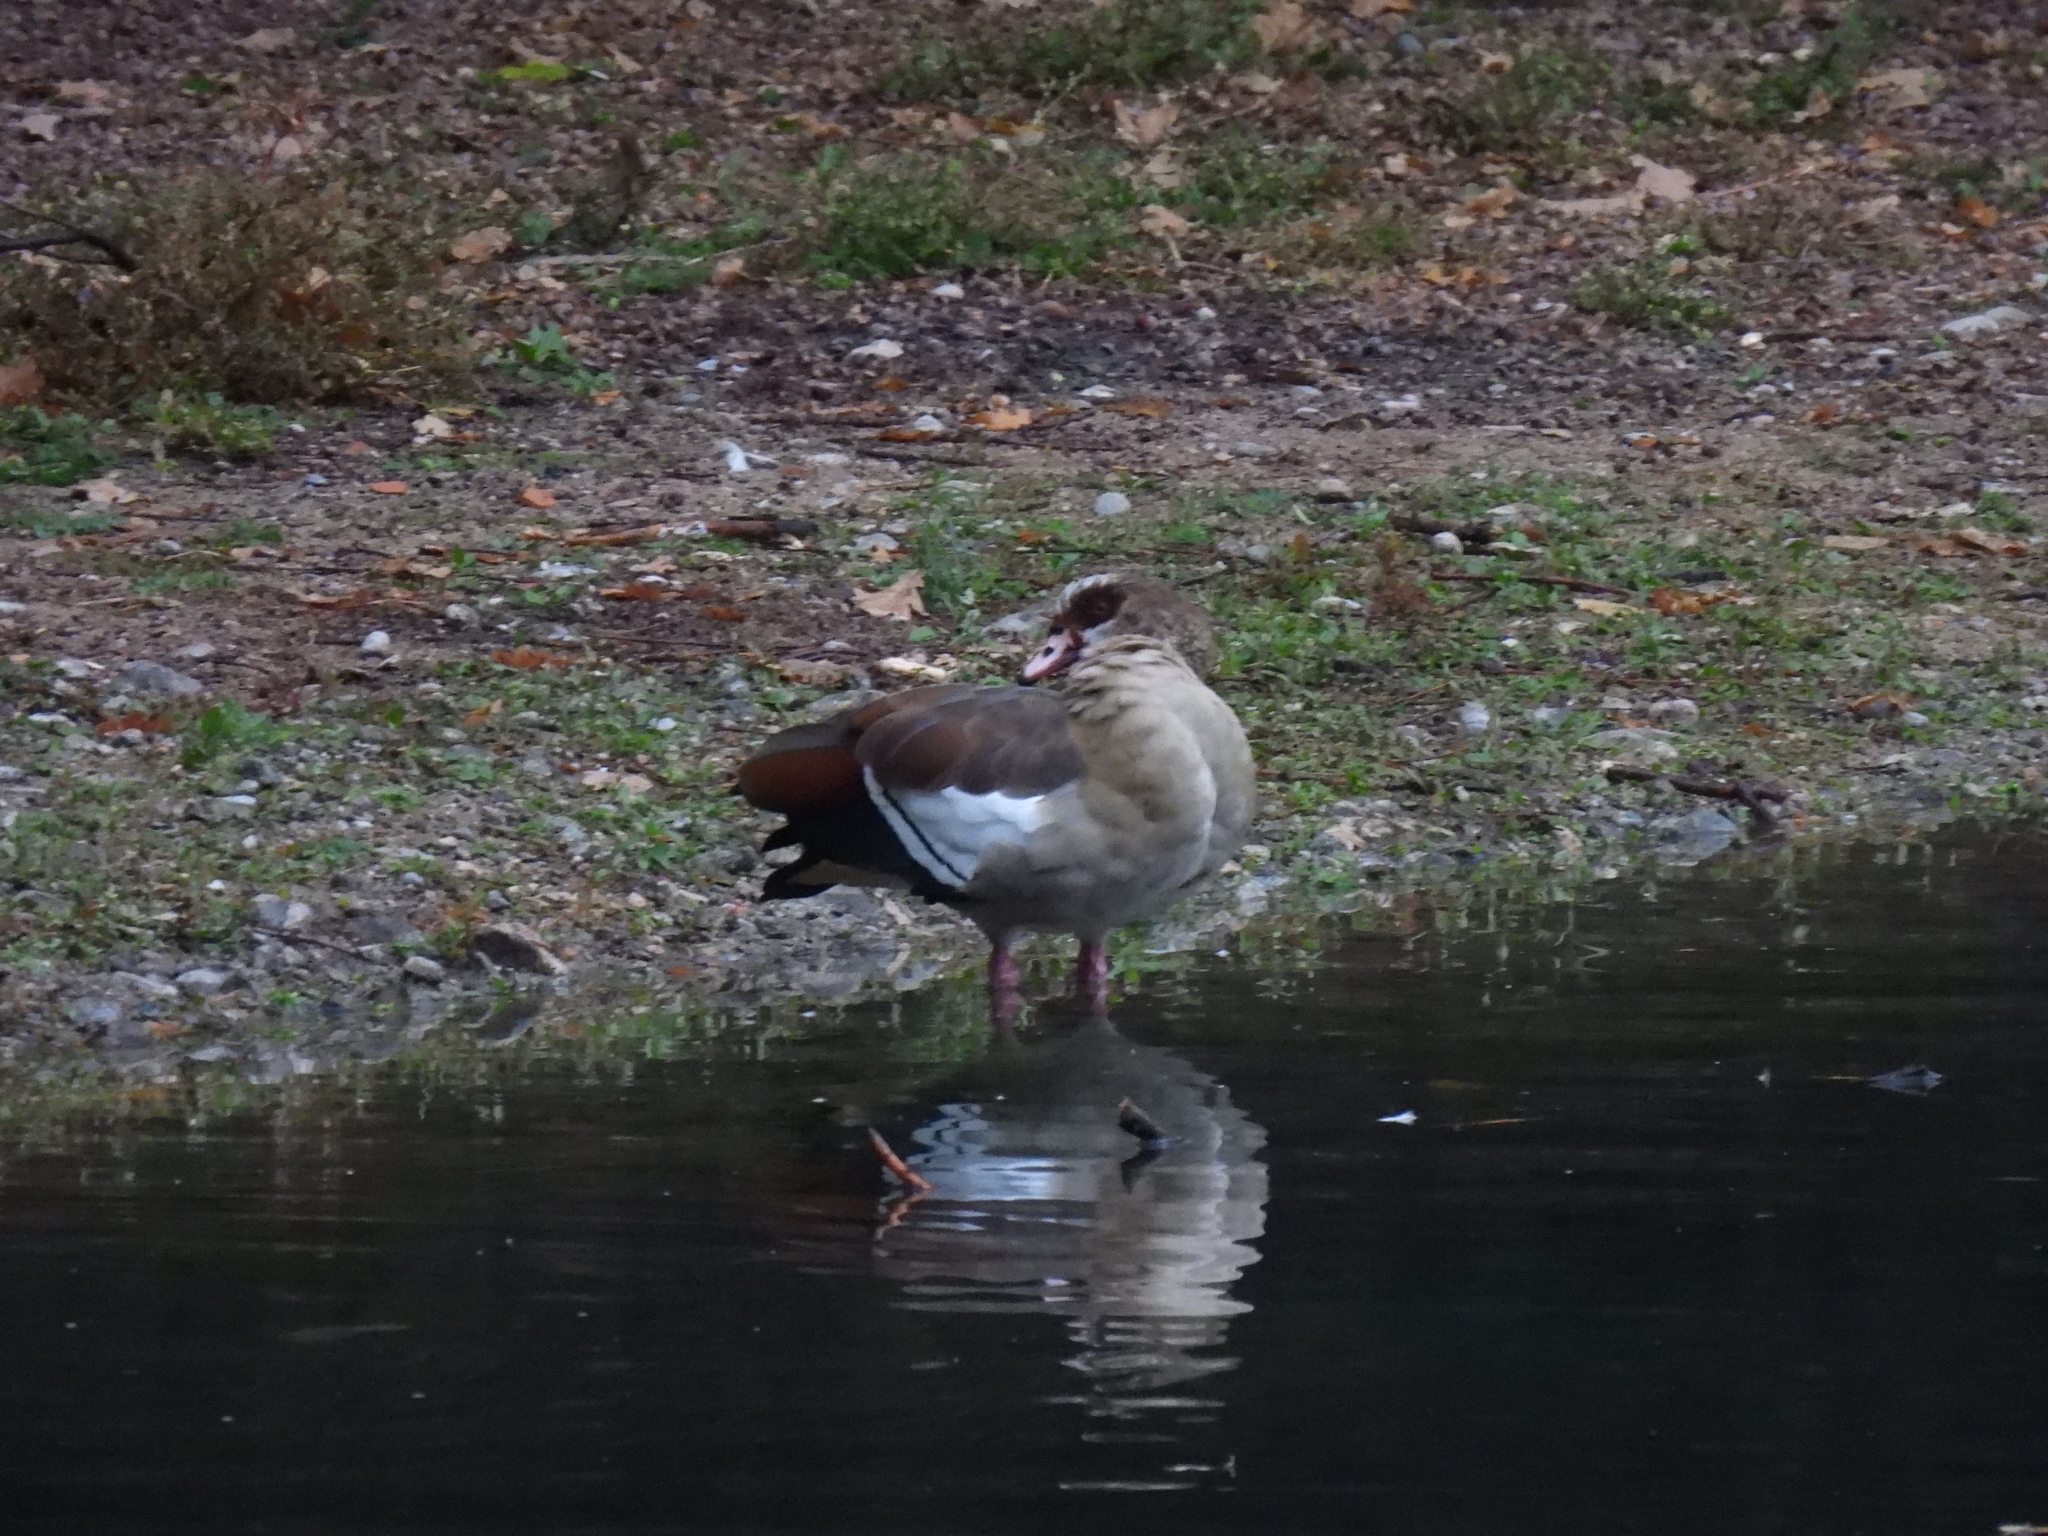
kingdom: Animalia
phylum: Chordata
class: Aves
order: Anseriformes
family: Anatidae
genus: Alopochen
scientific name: Alopochen aegyptiaca
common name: Egyptian goose
